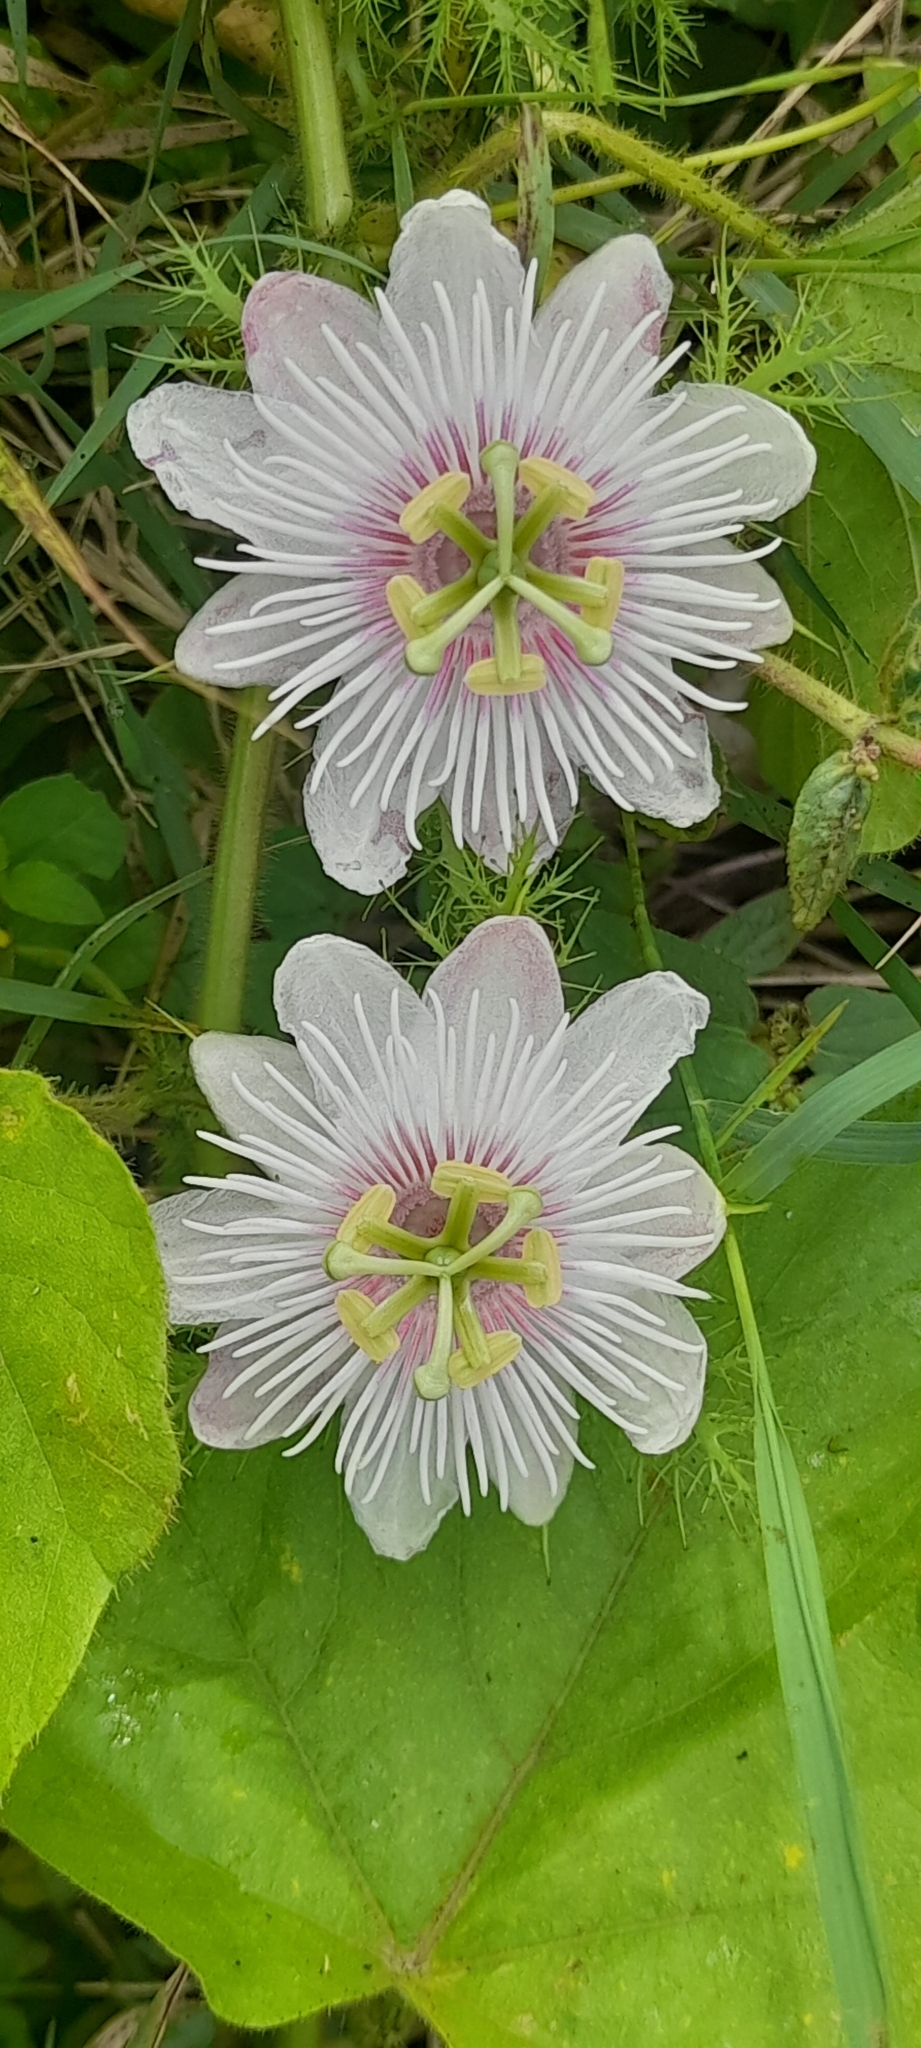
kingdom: Plantae
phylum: Tracheophyta
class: Magnoliopsida
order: Malpighiales
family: Passifloraceae
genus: Passiflora
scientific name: Passiflora vesicaria
